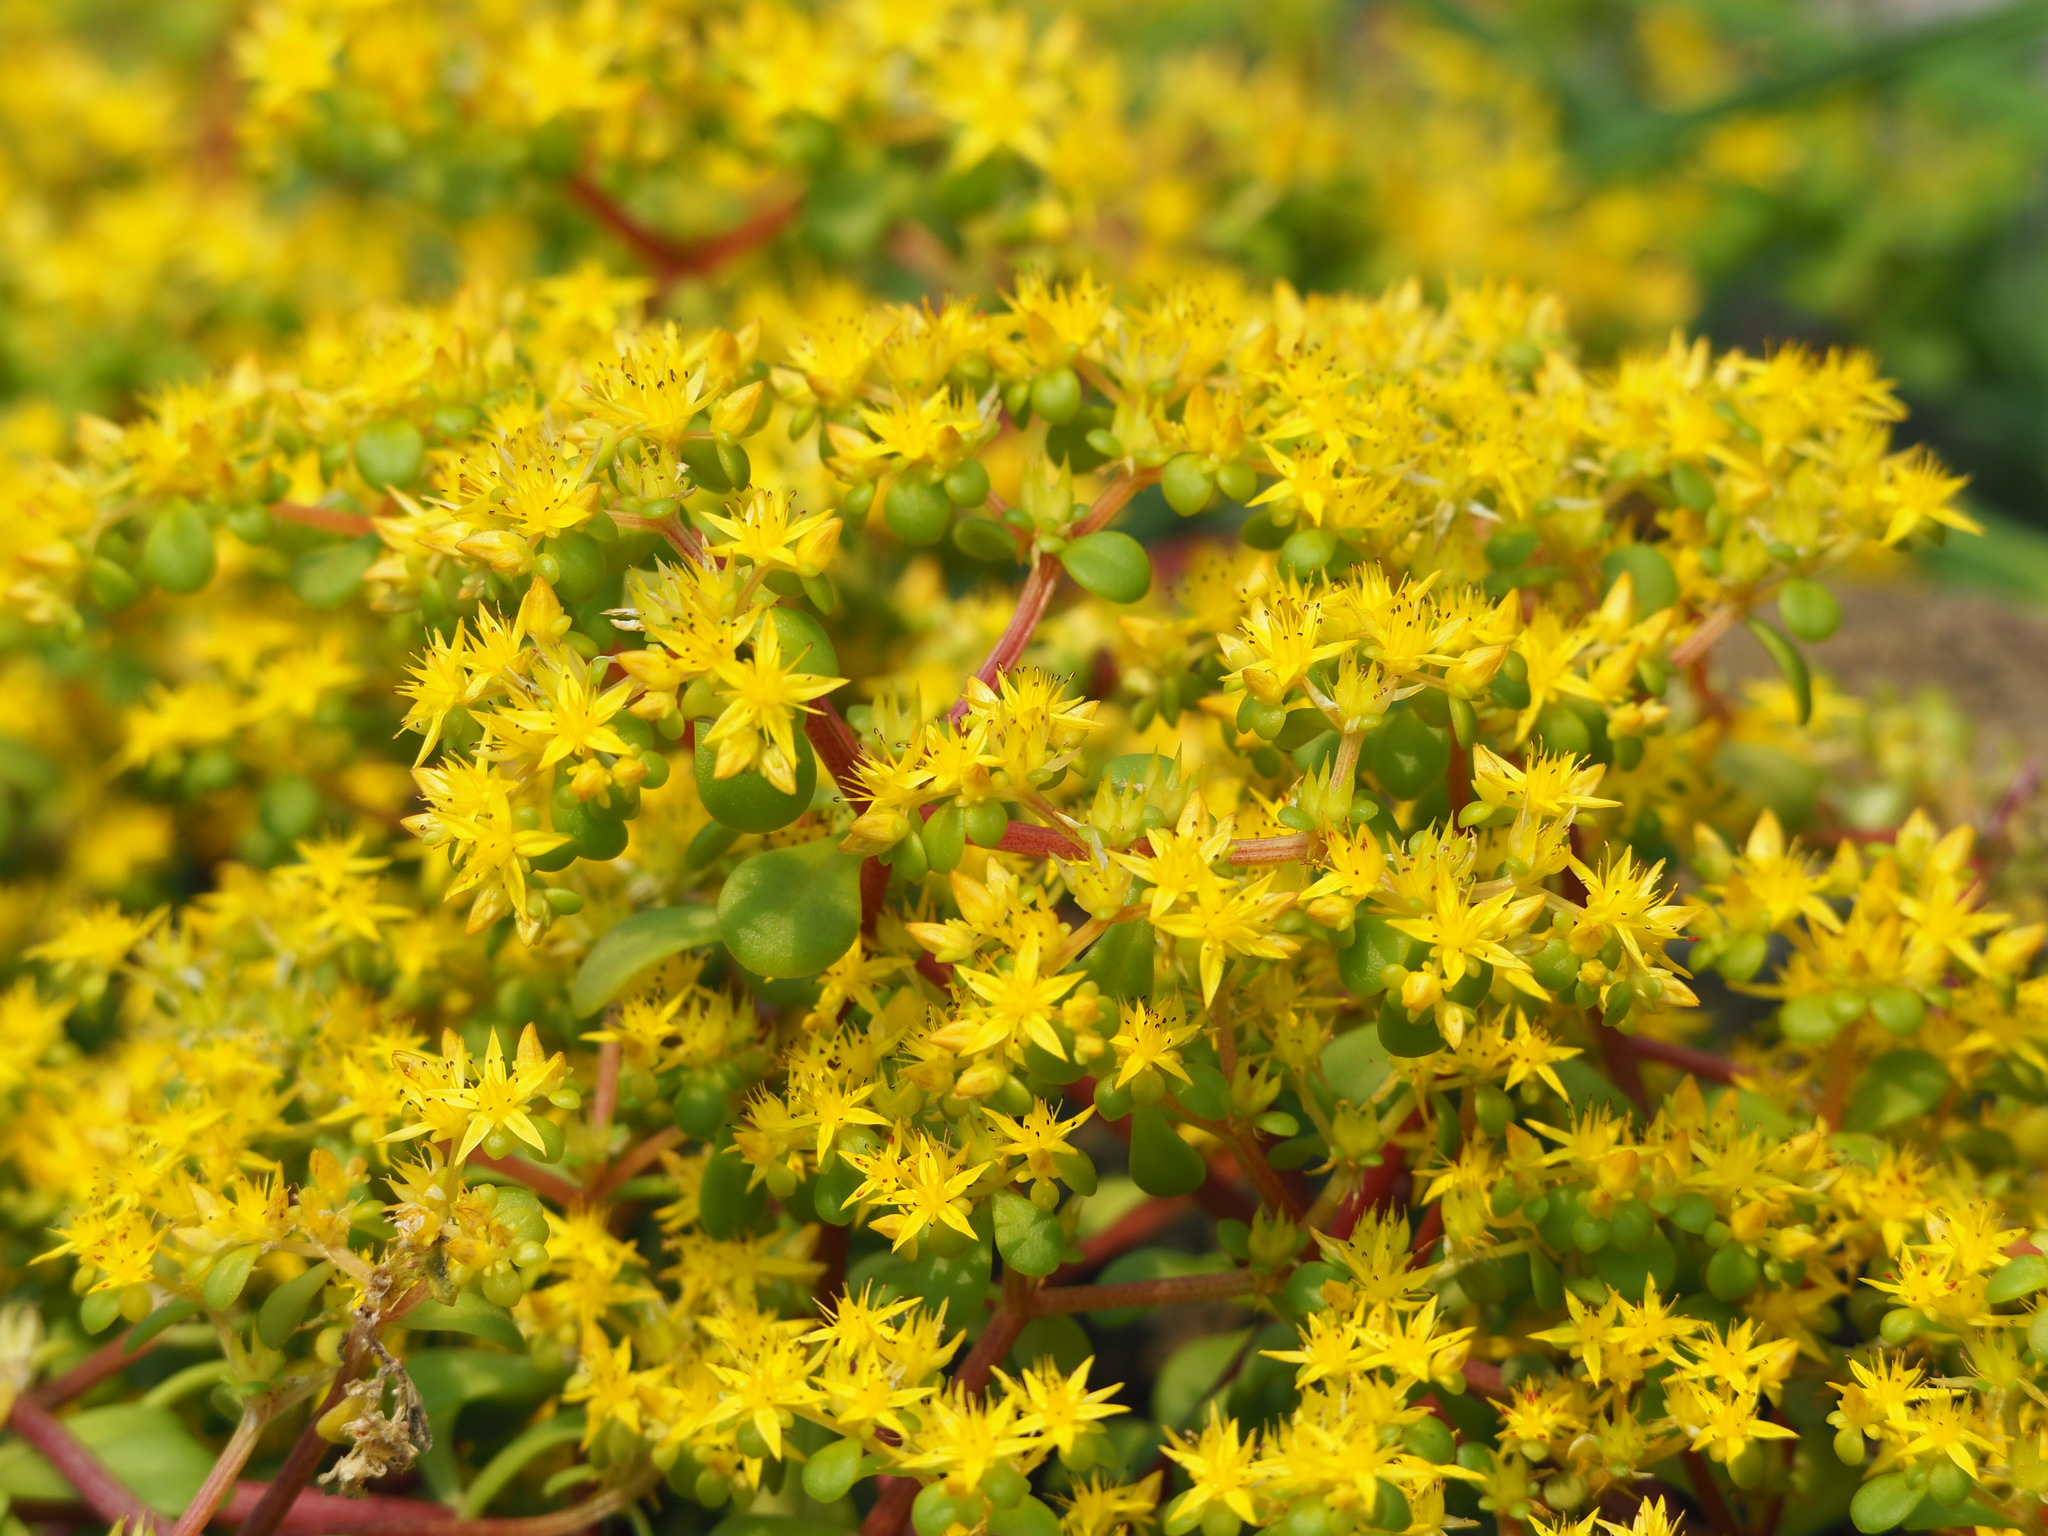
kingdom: Plantae
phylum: Tracheophyta
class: Magnoliopsida
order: Saxifragales
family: Crassulaceae
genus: Sedum
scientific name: Sedum formosanum
